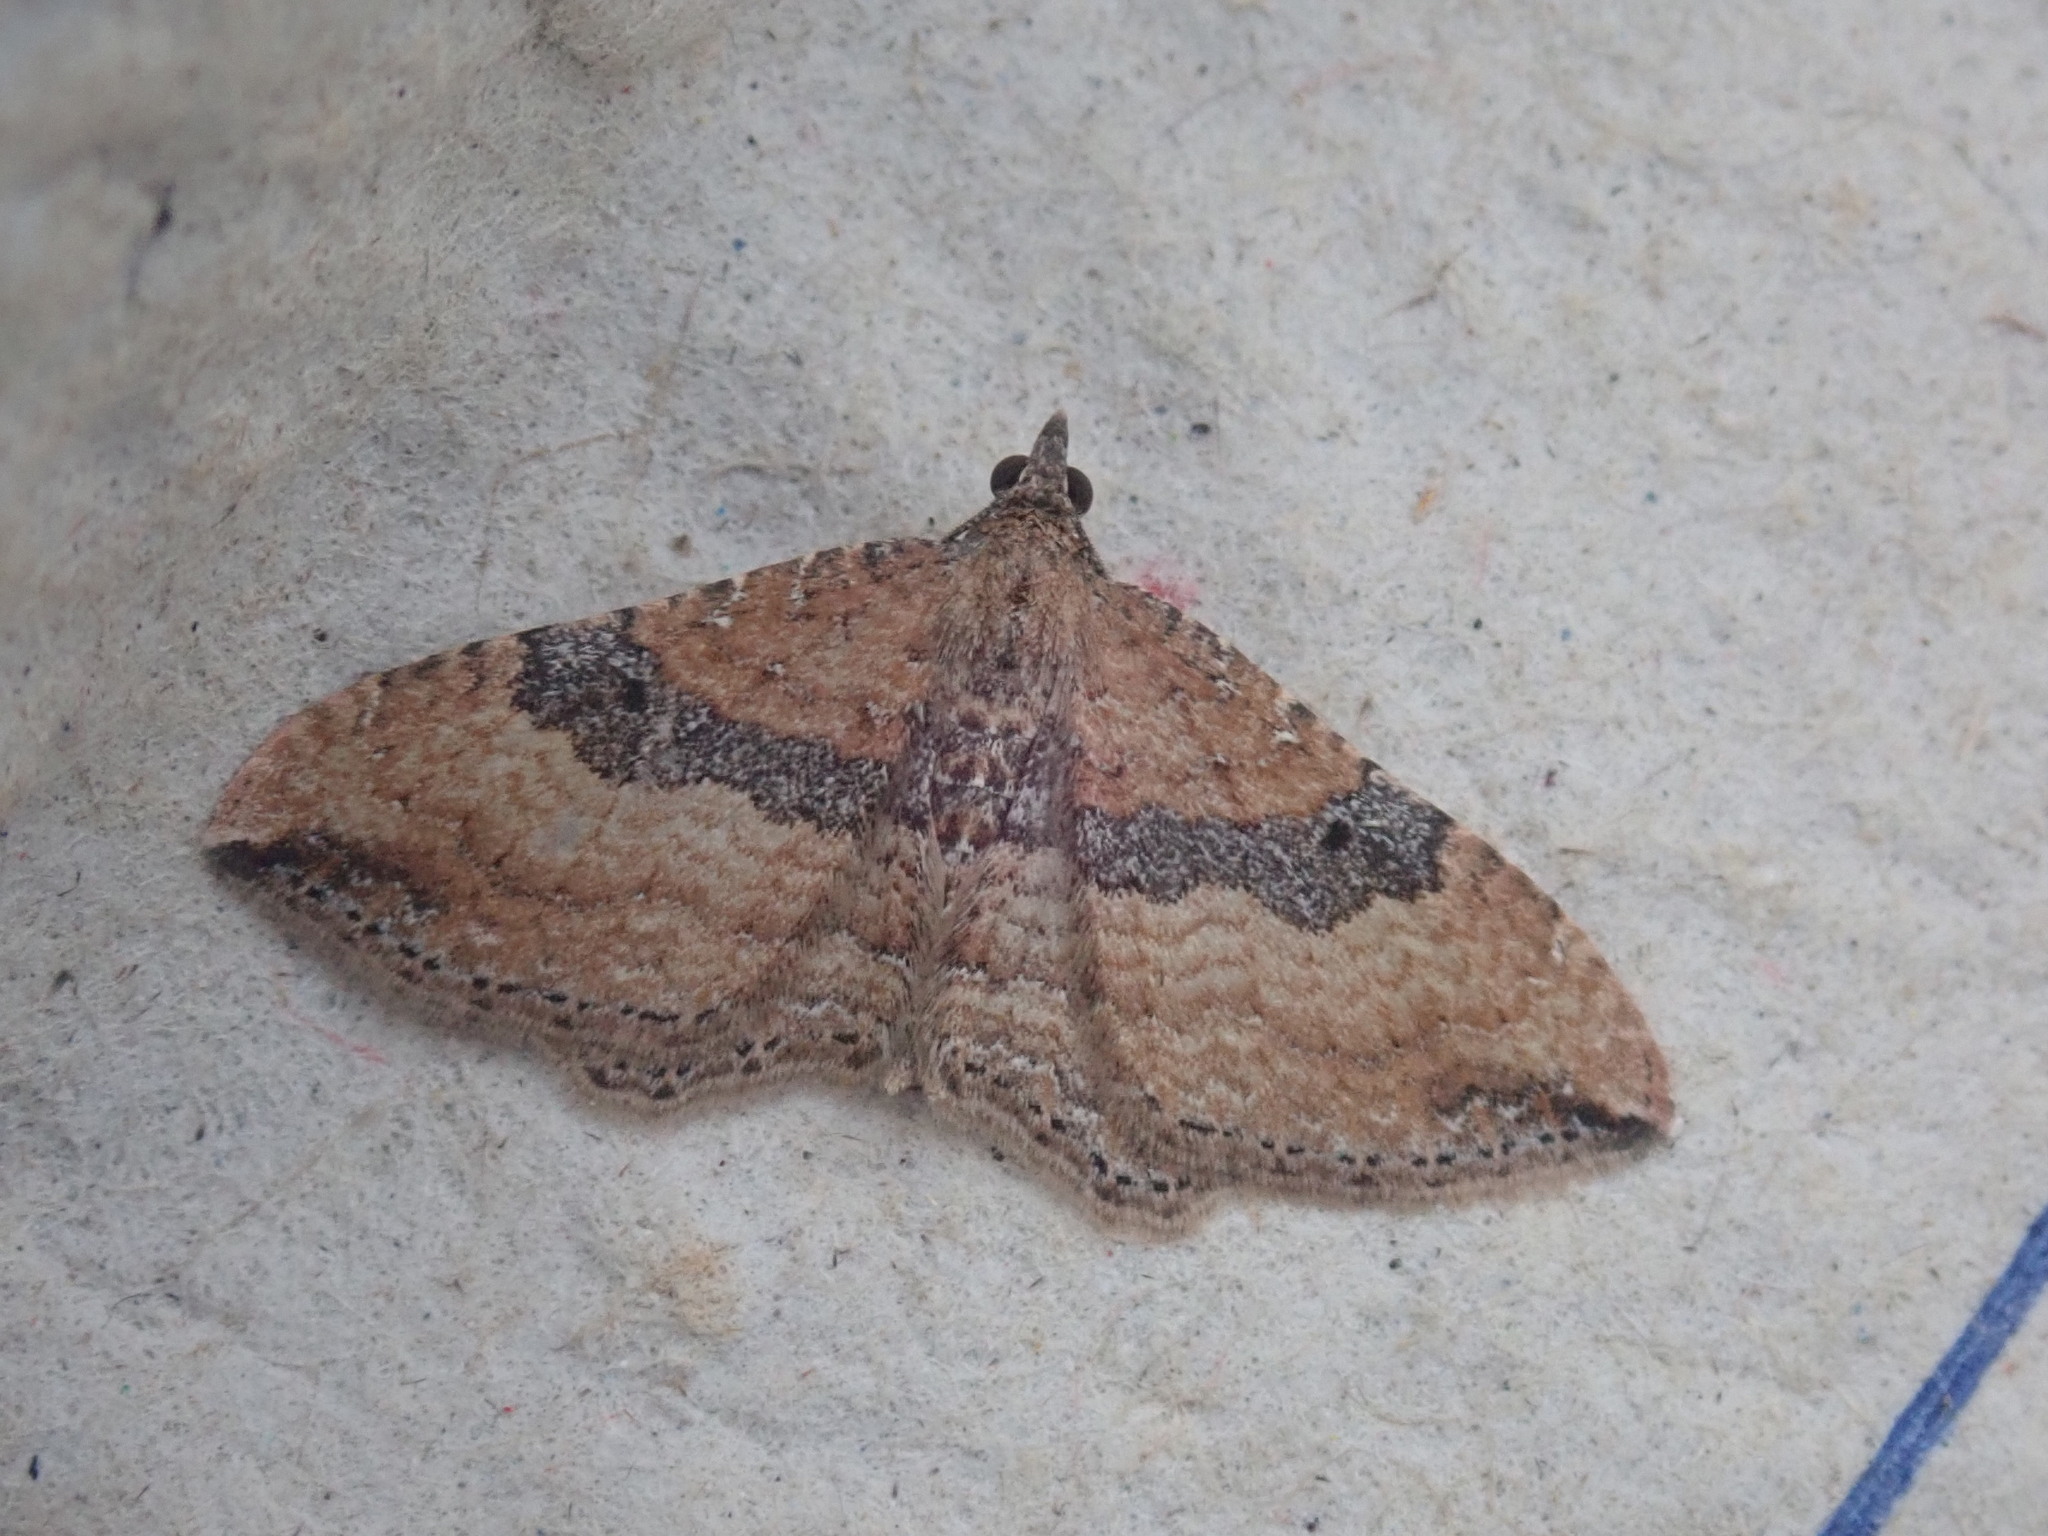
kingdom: Animalia
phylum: Arthropoda
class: Insecta
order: Lepidoptera
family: Geometridae
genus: Orthonama
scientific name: Orthonama obstipata
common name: The gem
